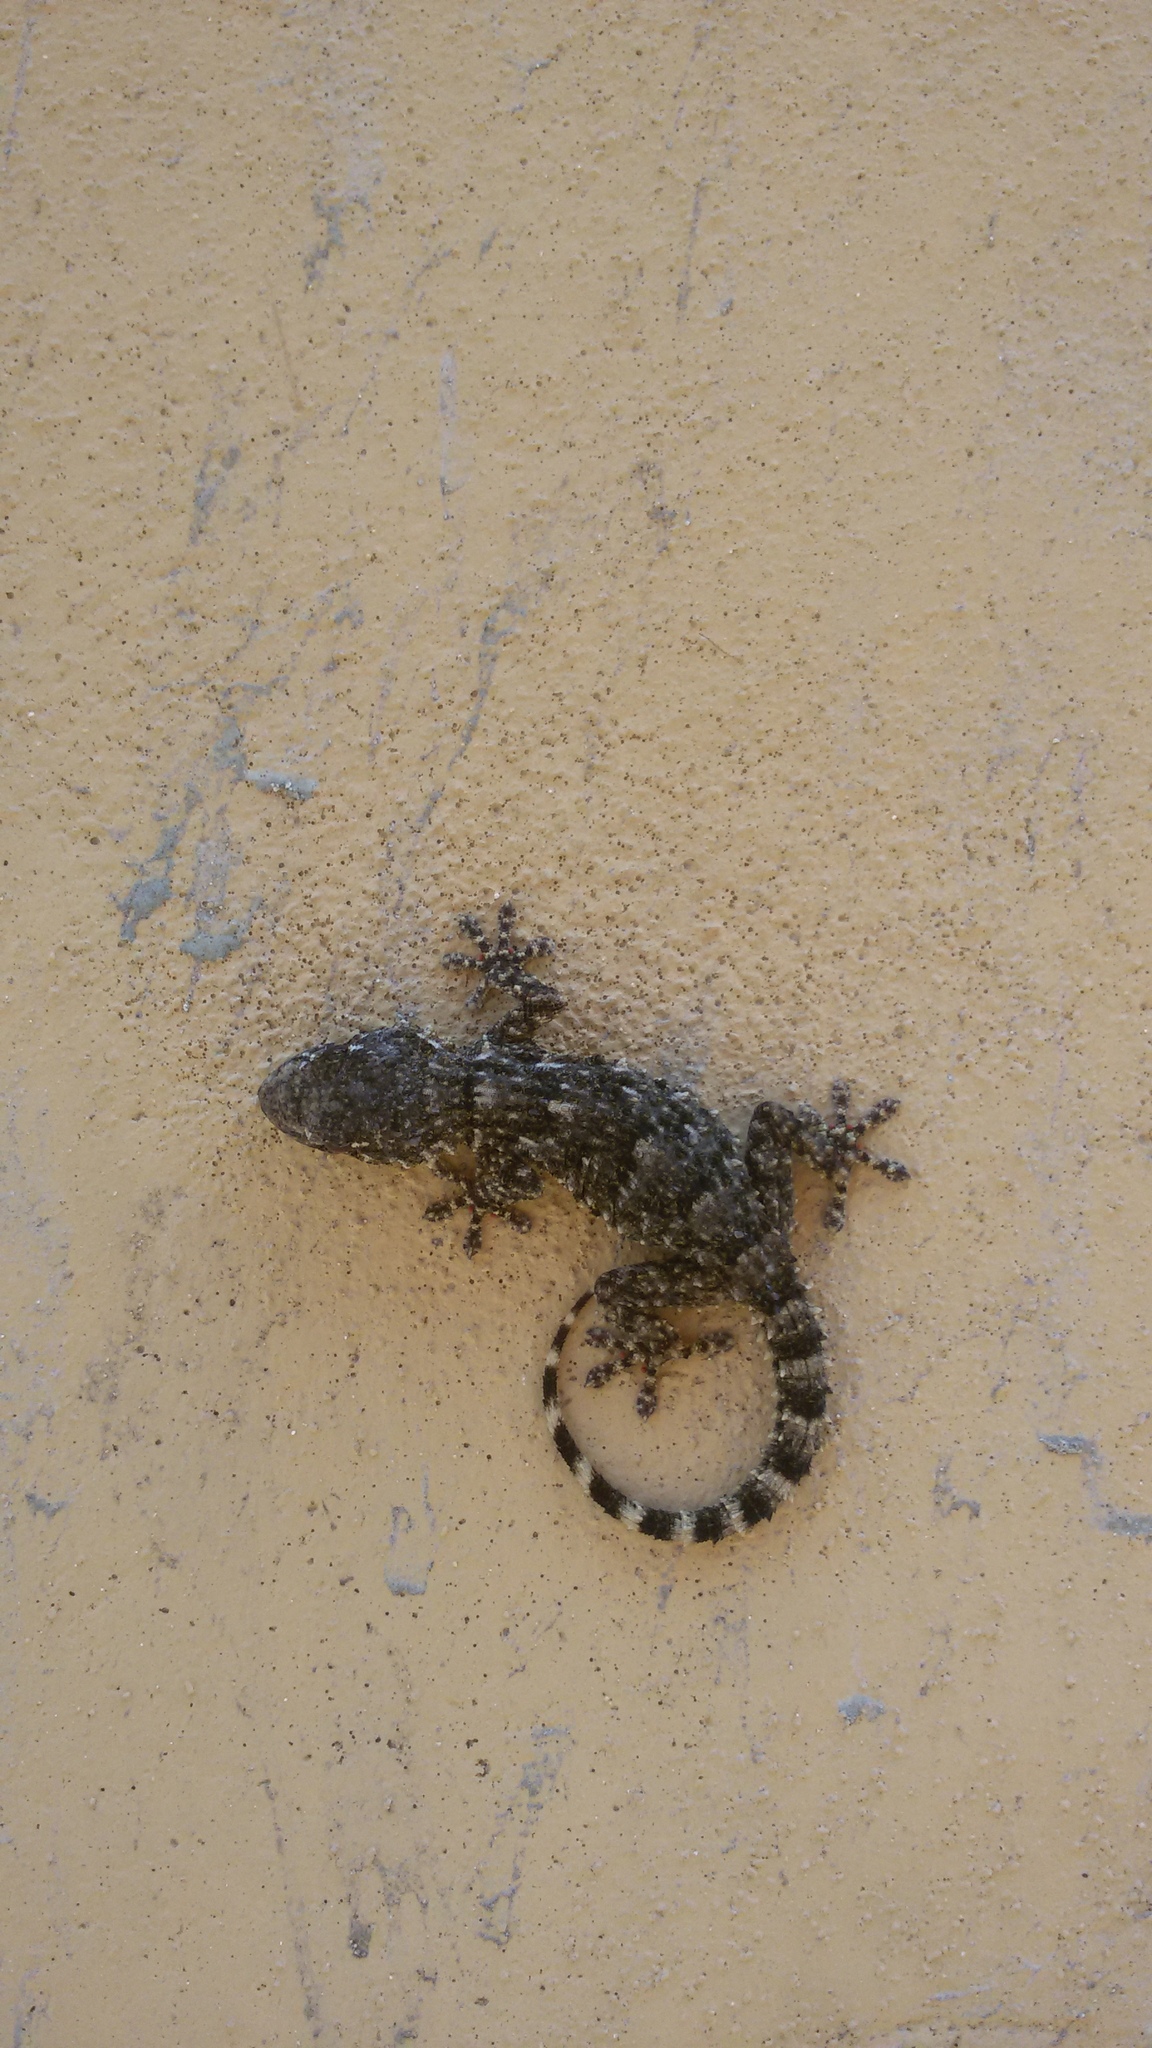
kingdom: Animalia
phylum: Chordata
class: Squamata
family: Phyllodactylidae
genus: Tarentola
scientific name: Tarentola mauritanica
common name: Moorish gecko
